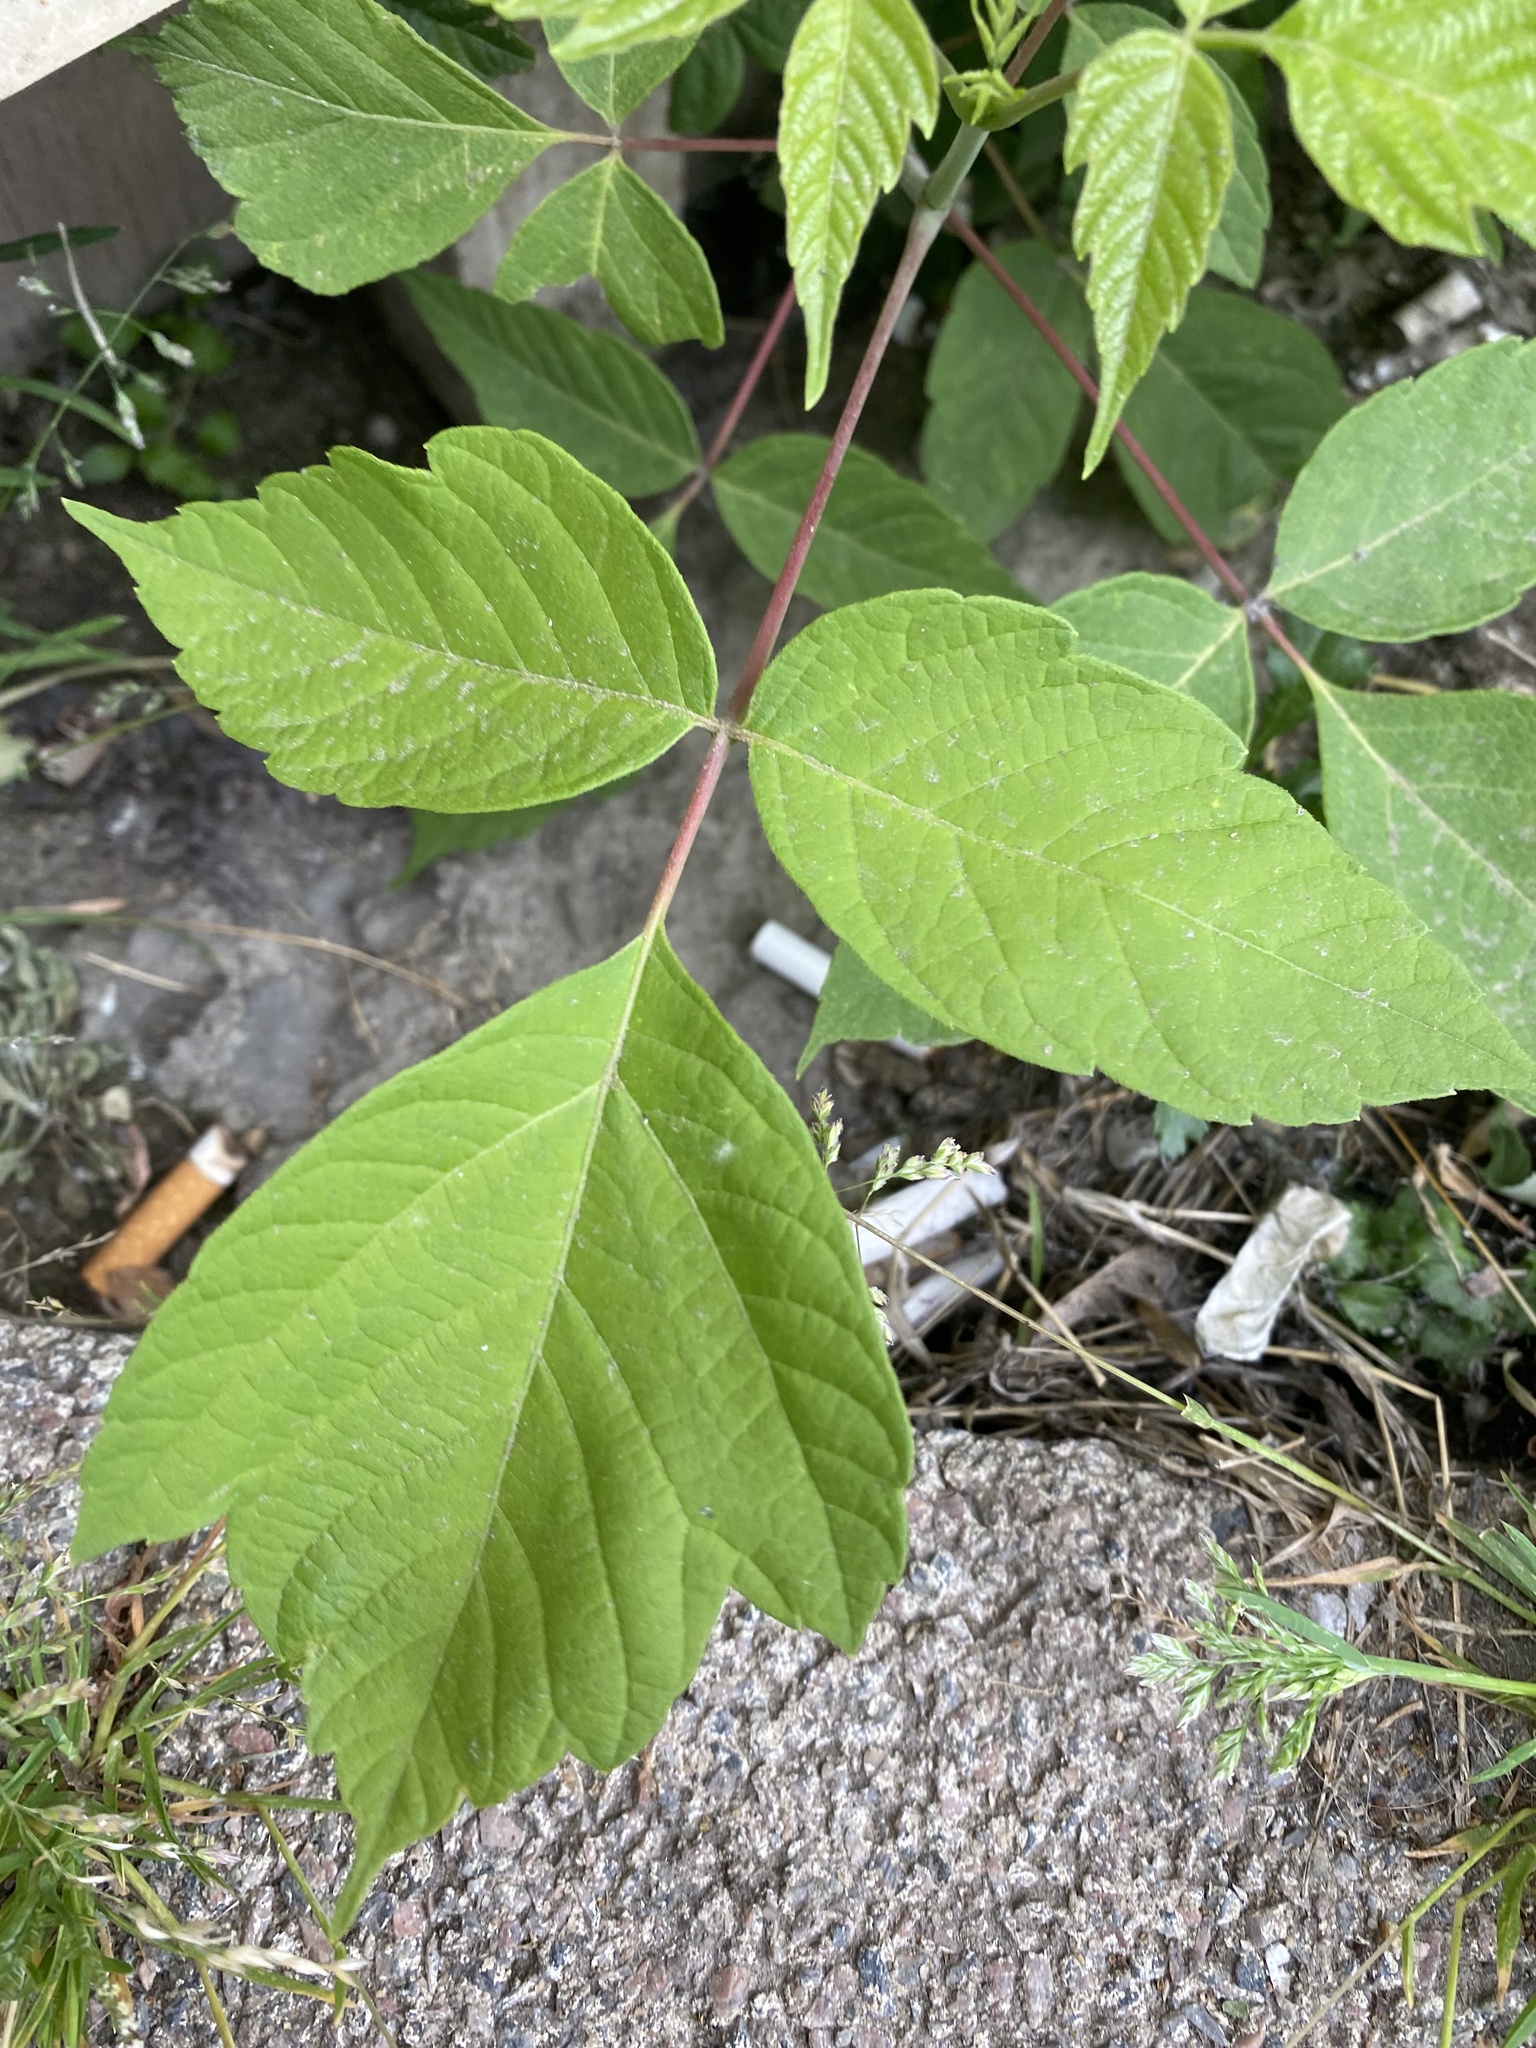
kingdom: Plantae
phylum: Tracheophyta
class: Magnoliopsida
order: Sapindales
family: Sapindaceae
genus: Acer
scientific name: Acer negundo
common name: Ashleaf maple
